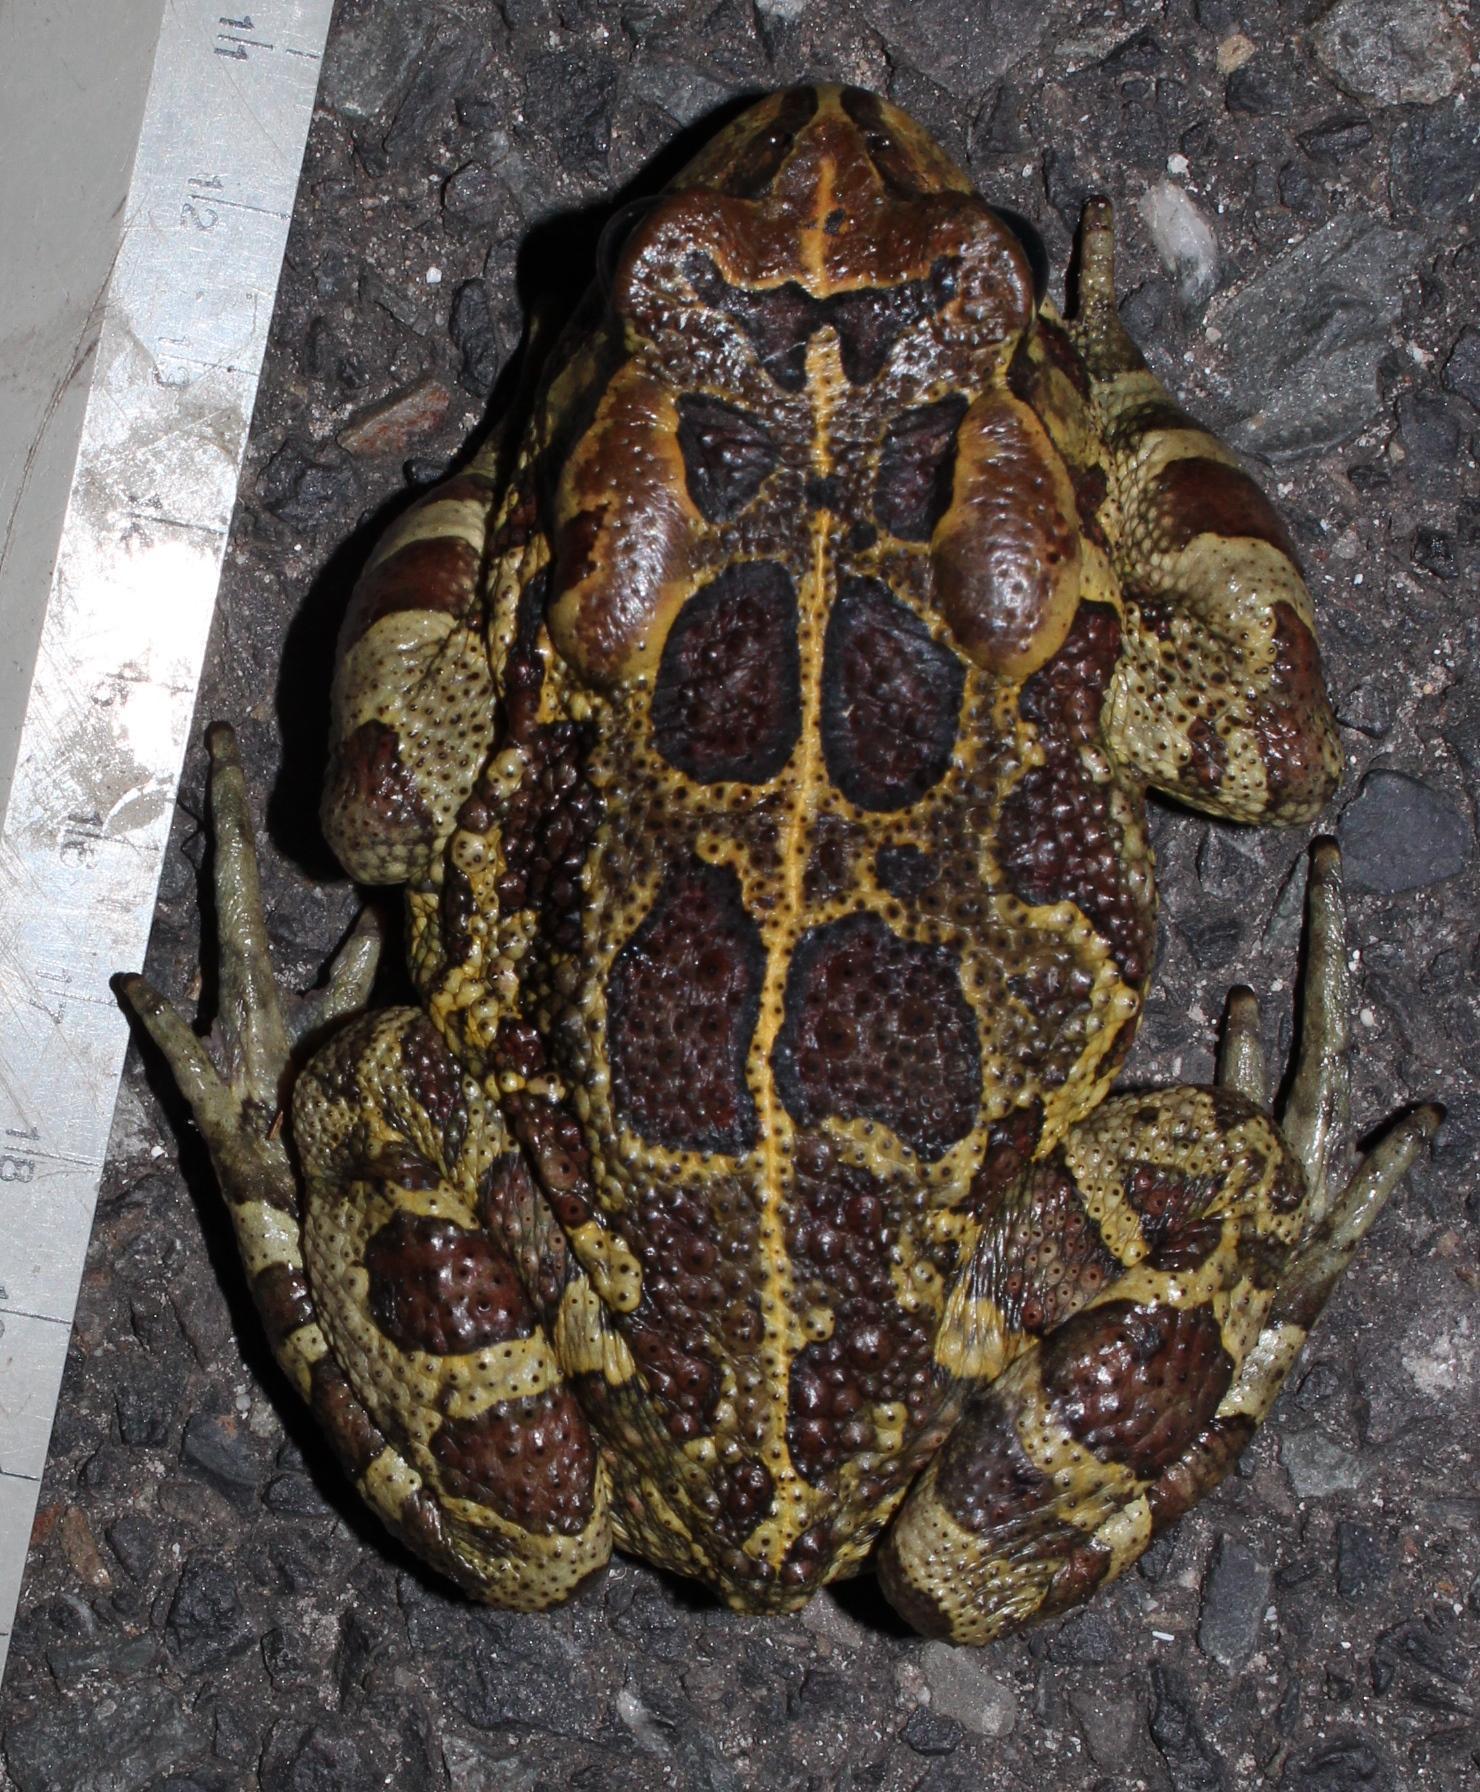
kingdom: Animalia
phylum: Chordata
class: Amphibia
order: Anura
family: Bufonidae
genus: Sclerophrys
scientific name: Sclerophrys pantherina
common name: Panther toad
